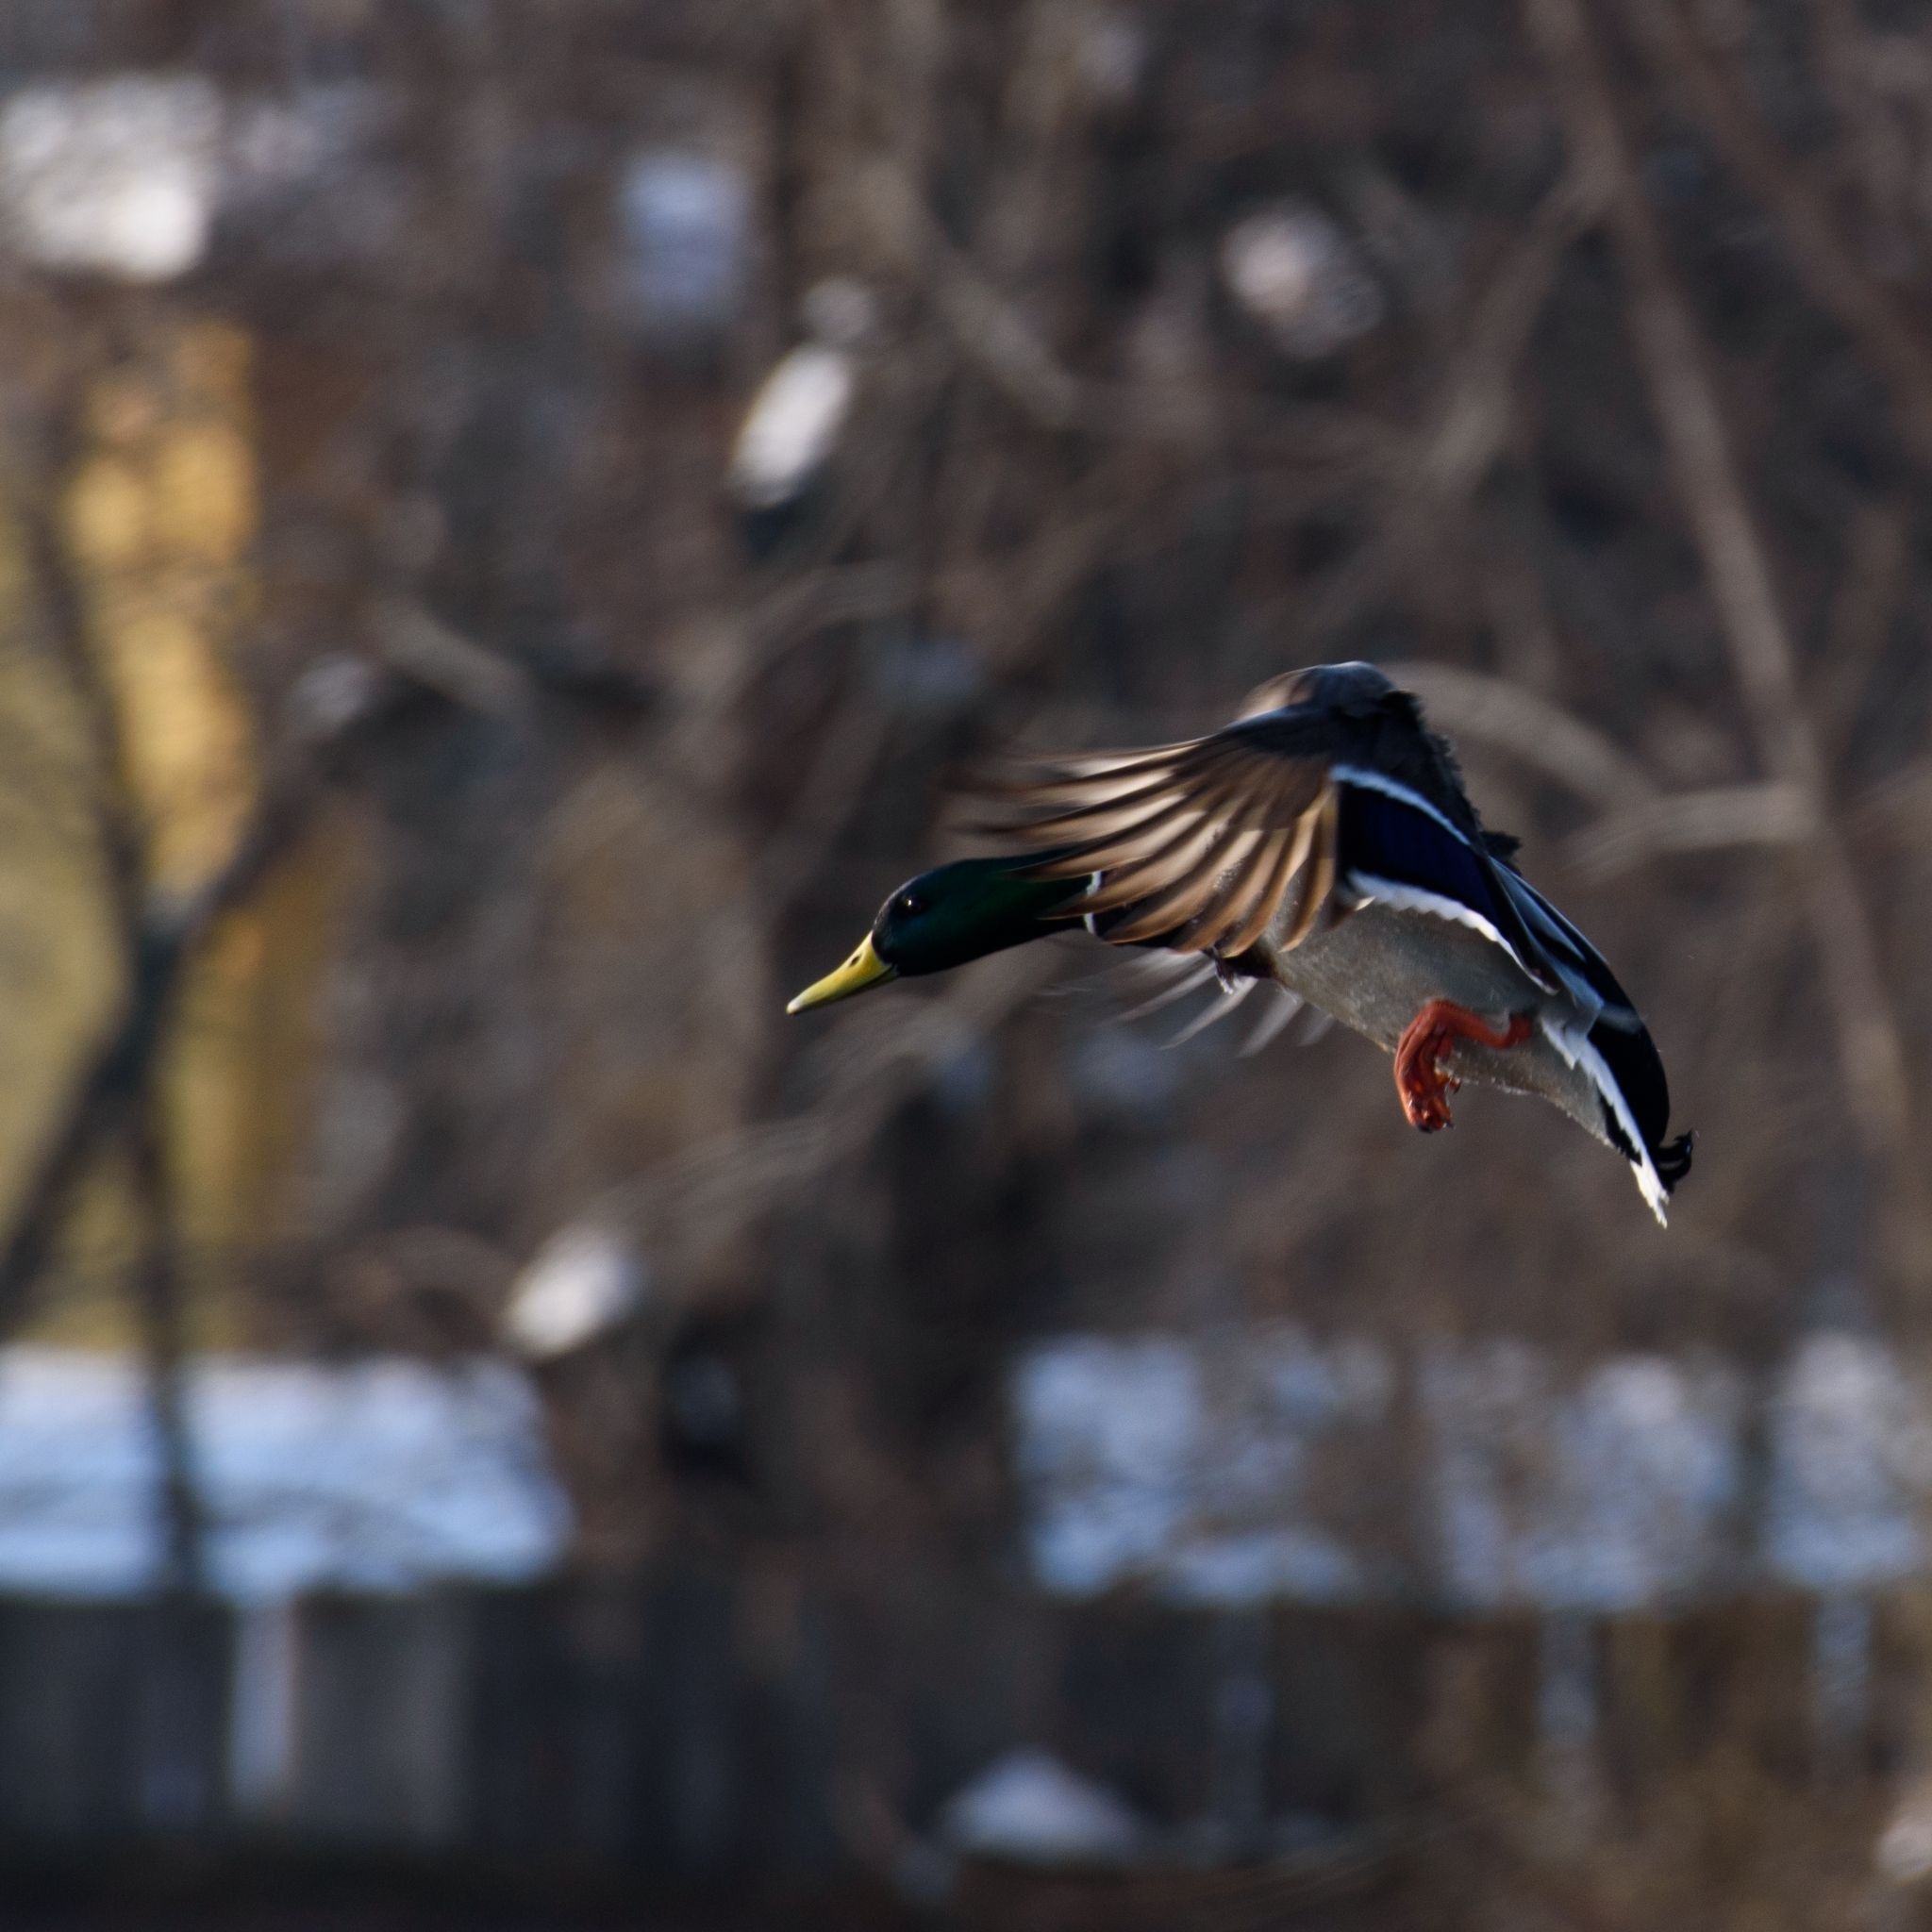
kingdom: Animalia
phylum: Chordata
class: Aves
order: Anseriformes
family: Anatidae
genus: Anas
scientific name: Anas platyrhynchos
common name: Mallard
